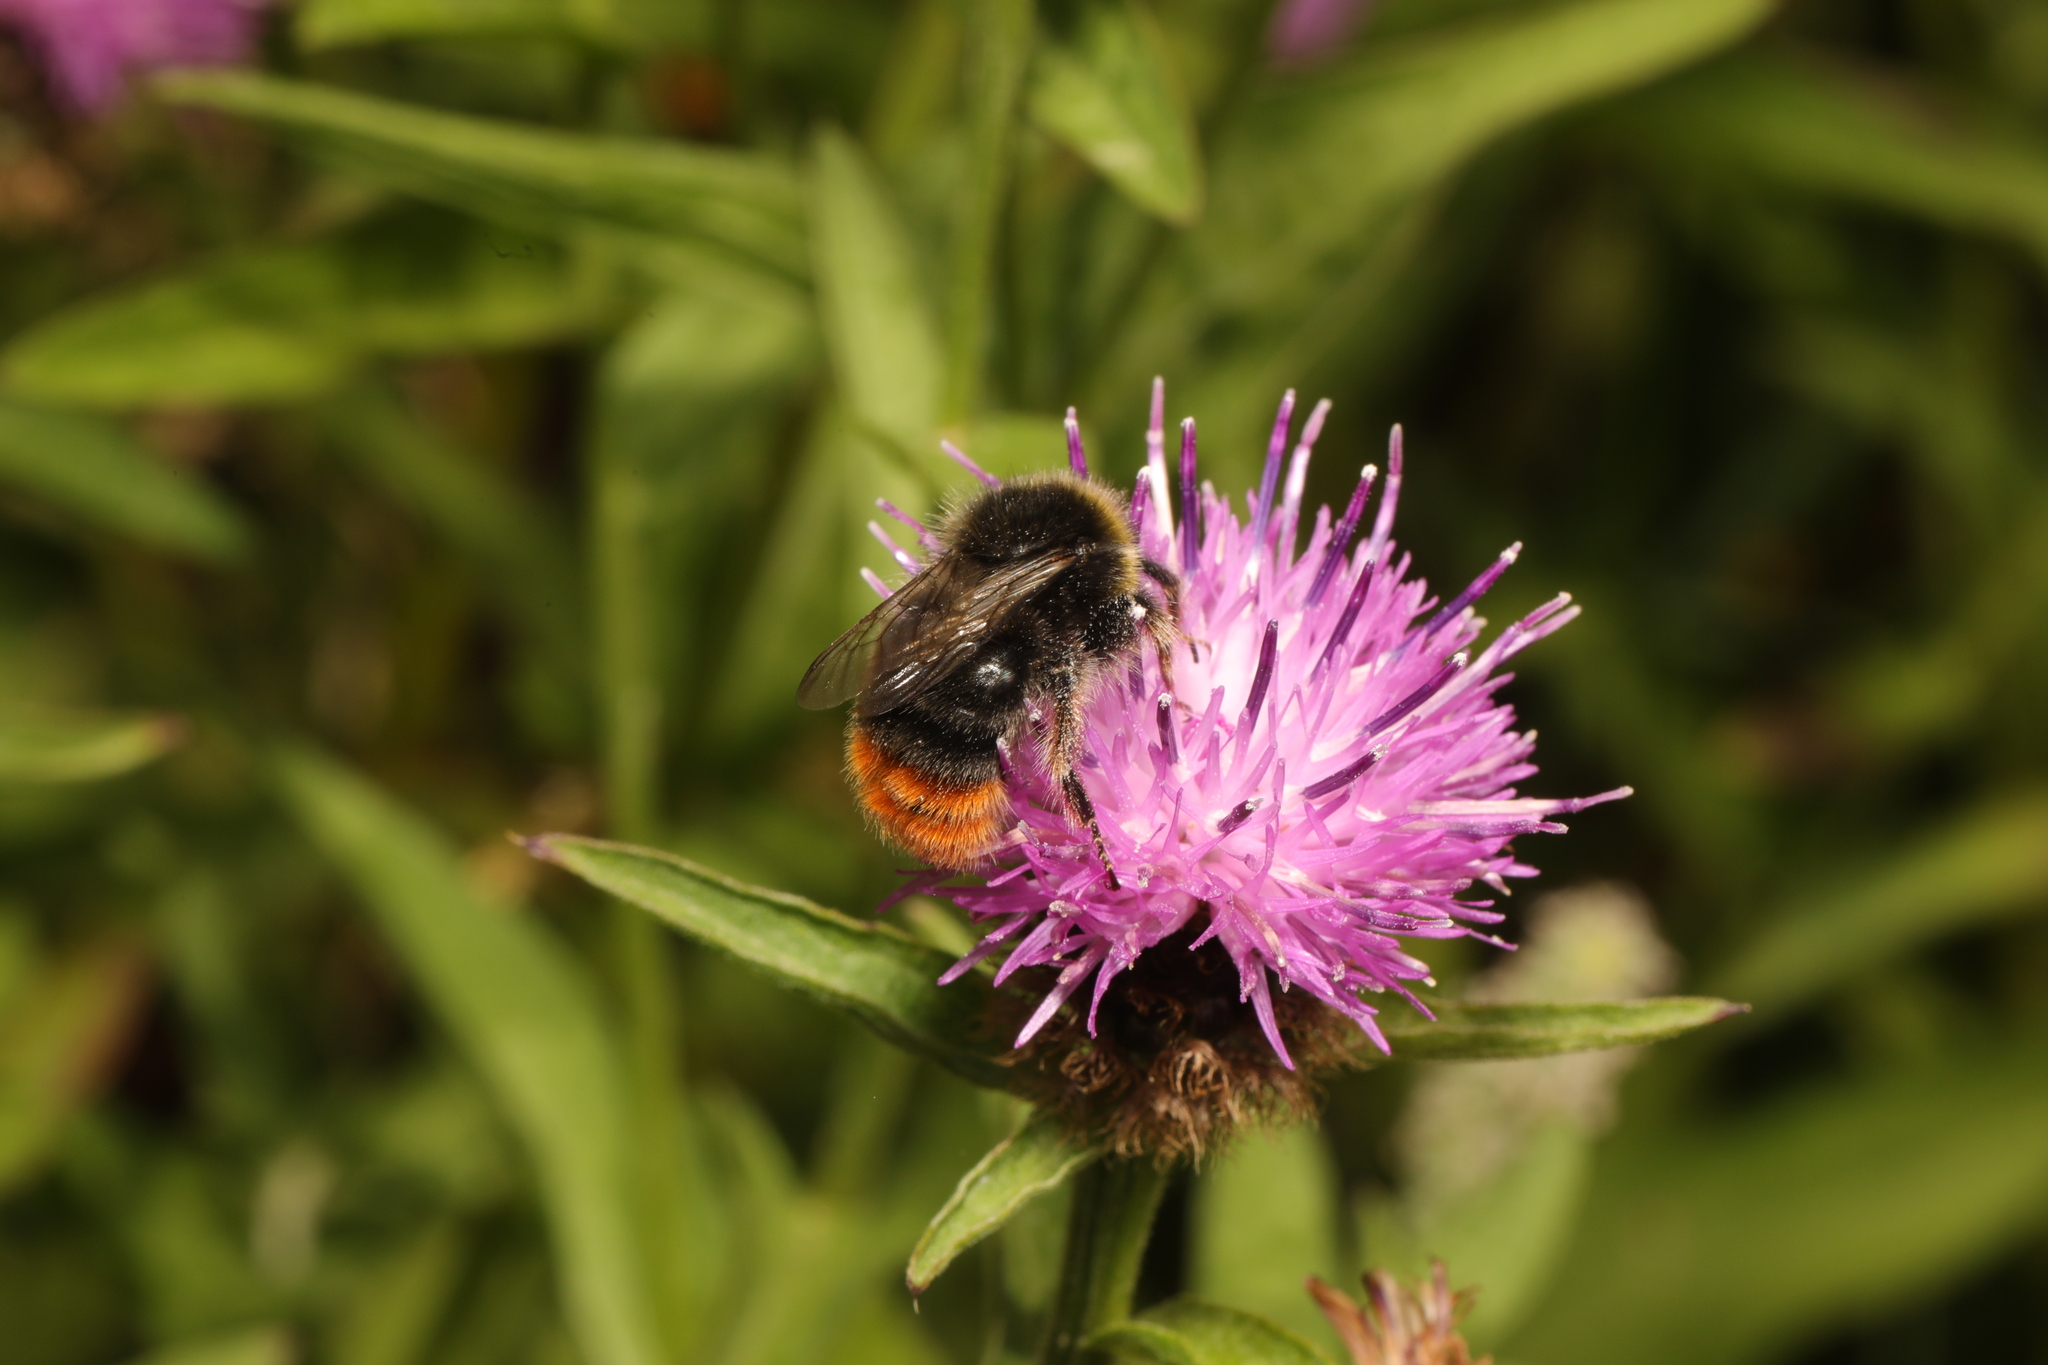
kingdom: Animalia
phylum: Arthropoda
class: Insecta
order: Hymenoptera
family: Apidae
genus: Bombus
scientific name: Bombus lapidarius
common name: Large red-tailed humble-bee
